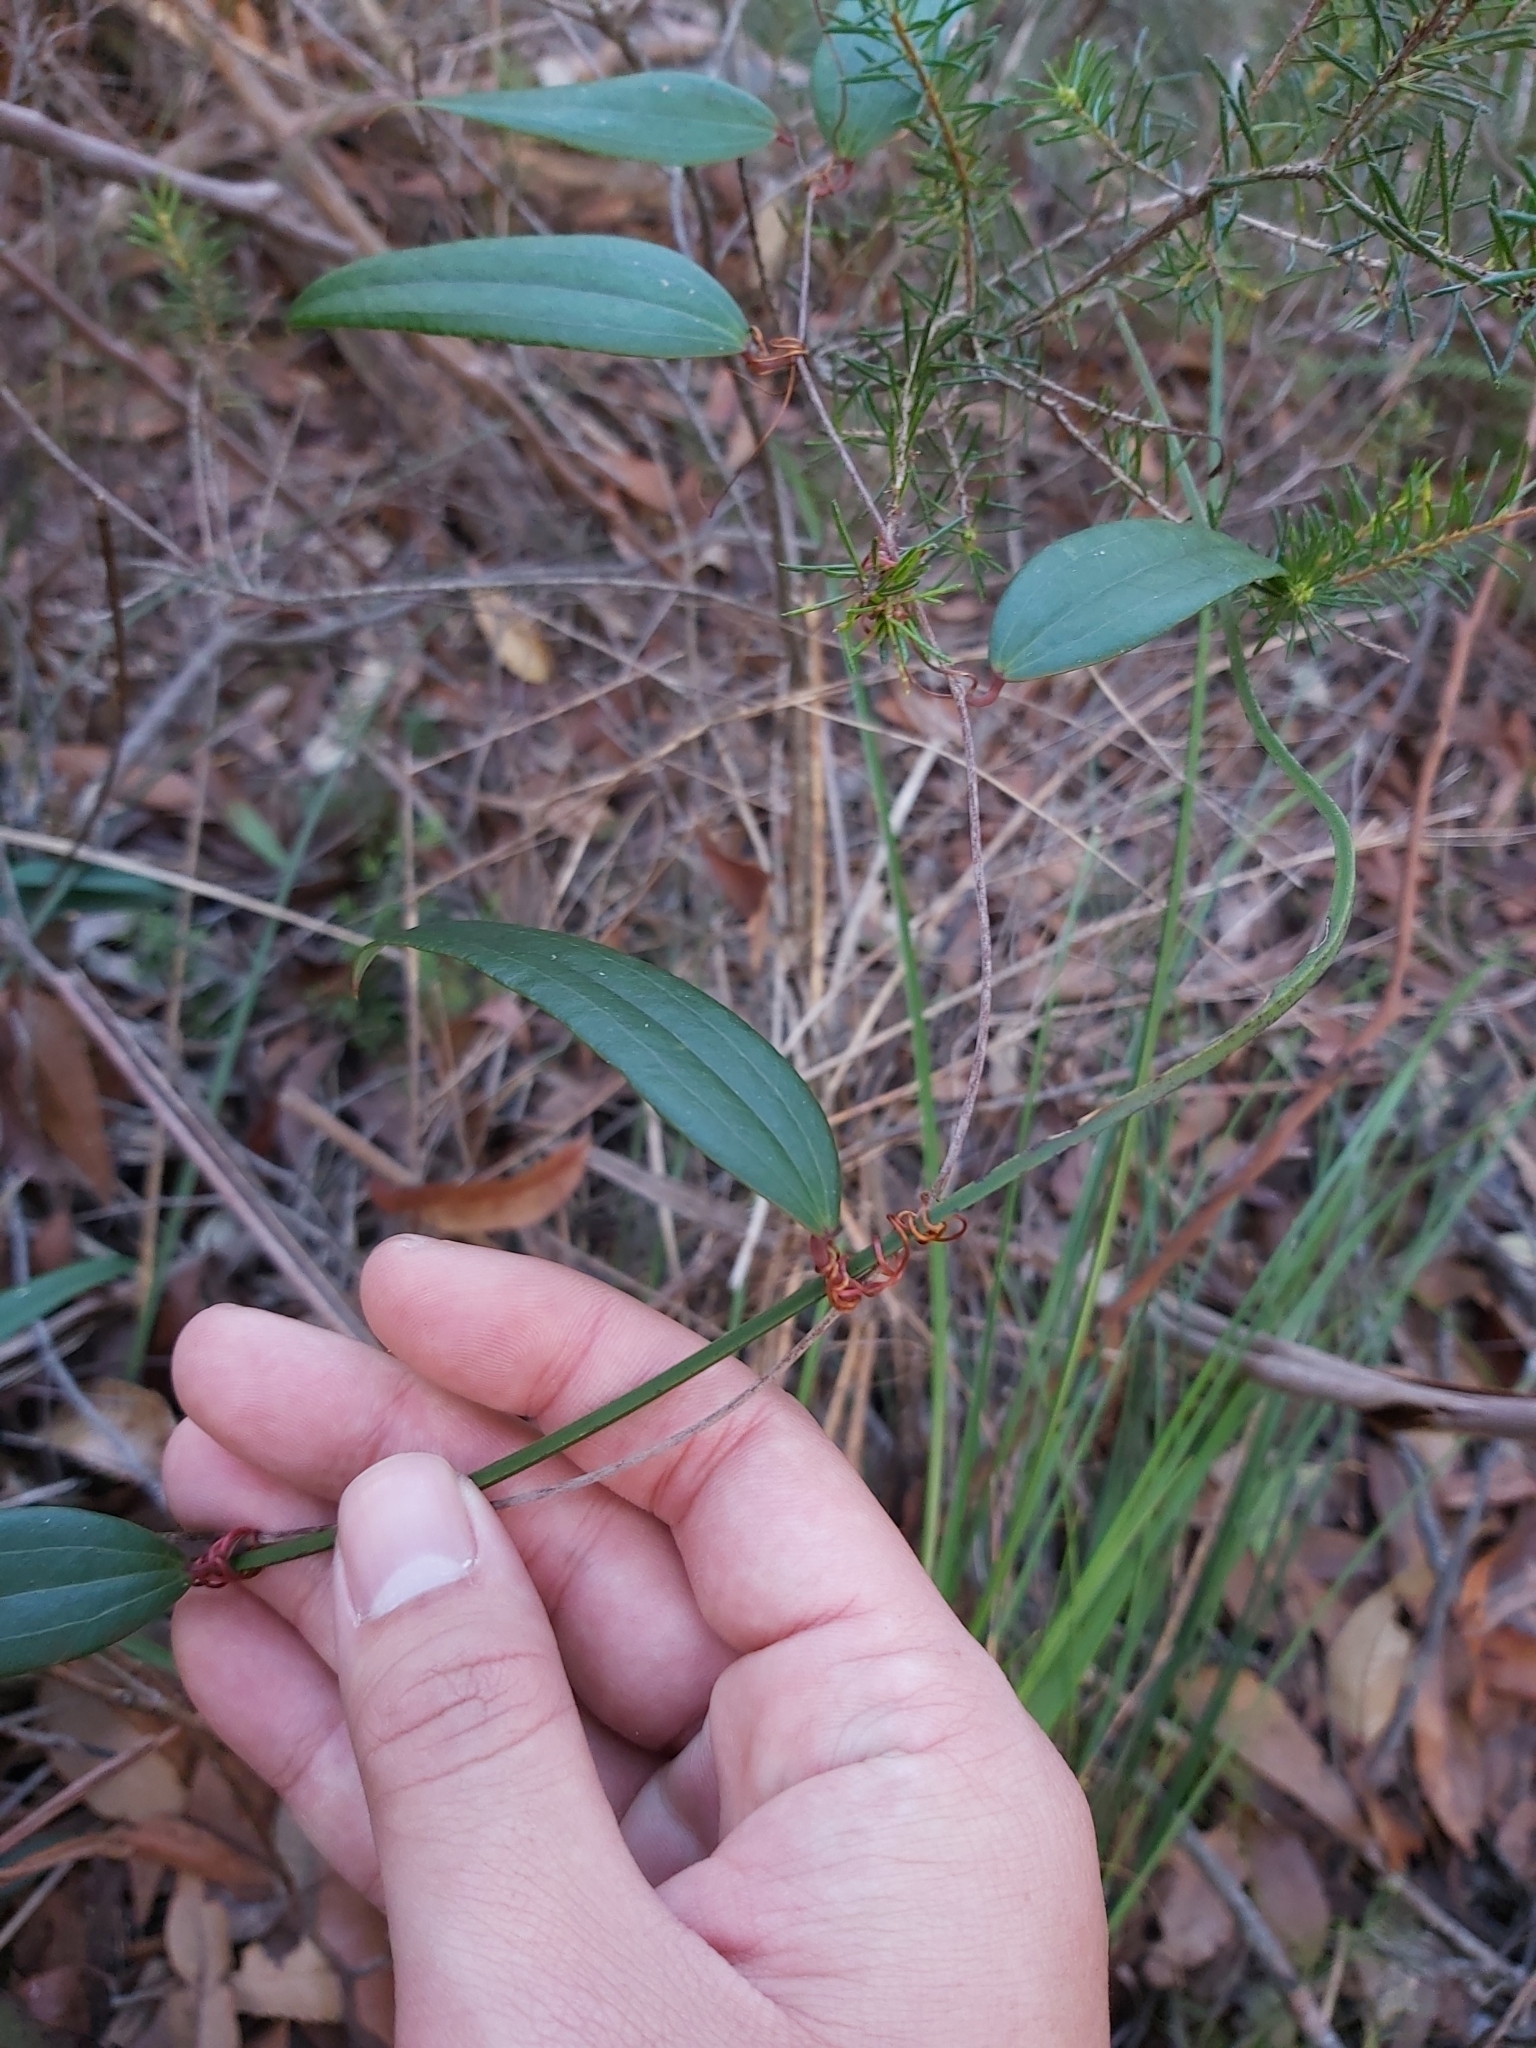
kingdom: Plantae
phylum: Tracheophyta
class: Liliopsida
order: Liliales
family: Smilacaceae
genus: Smilax
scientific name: Smilax glyciphylla
